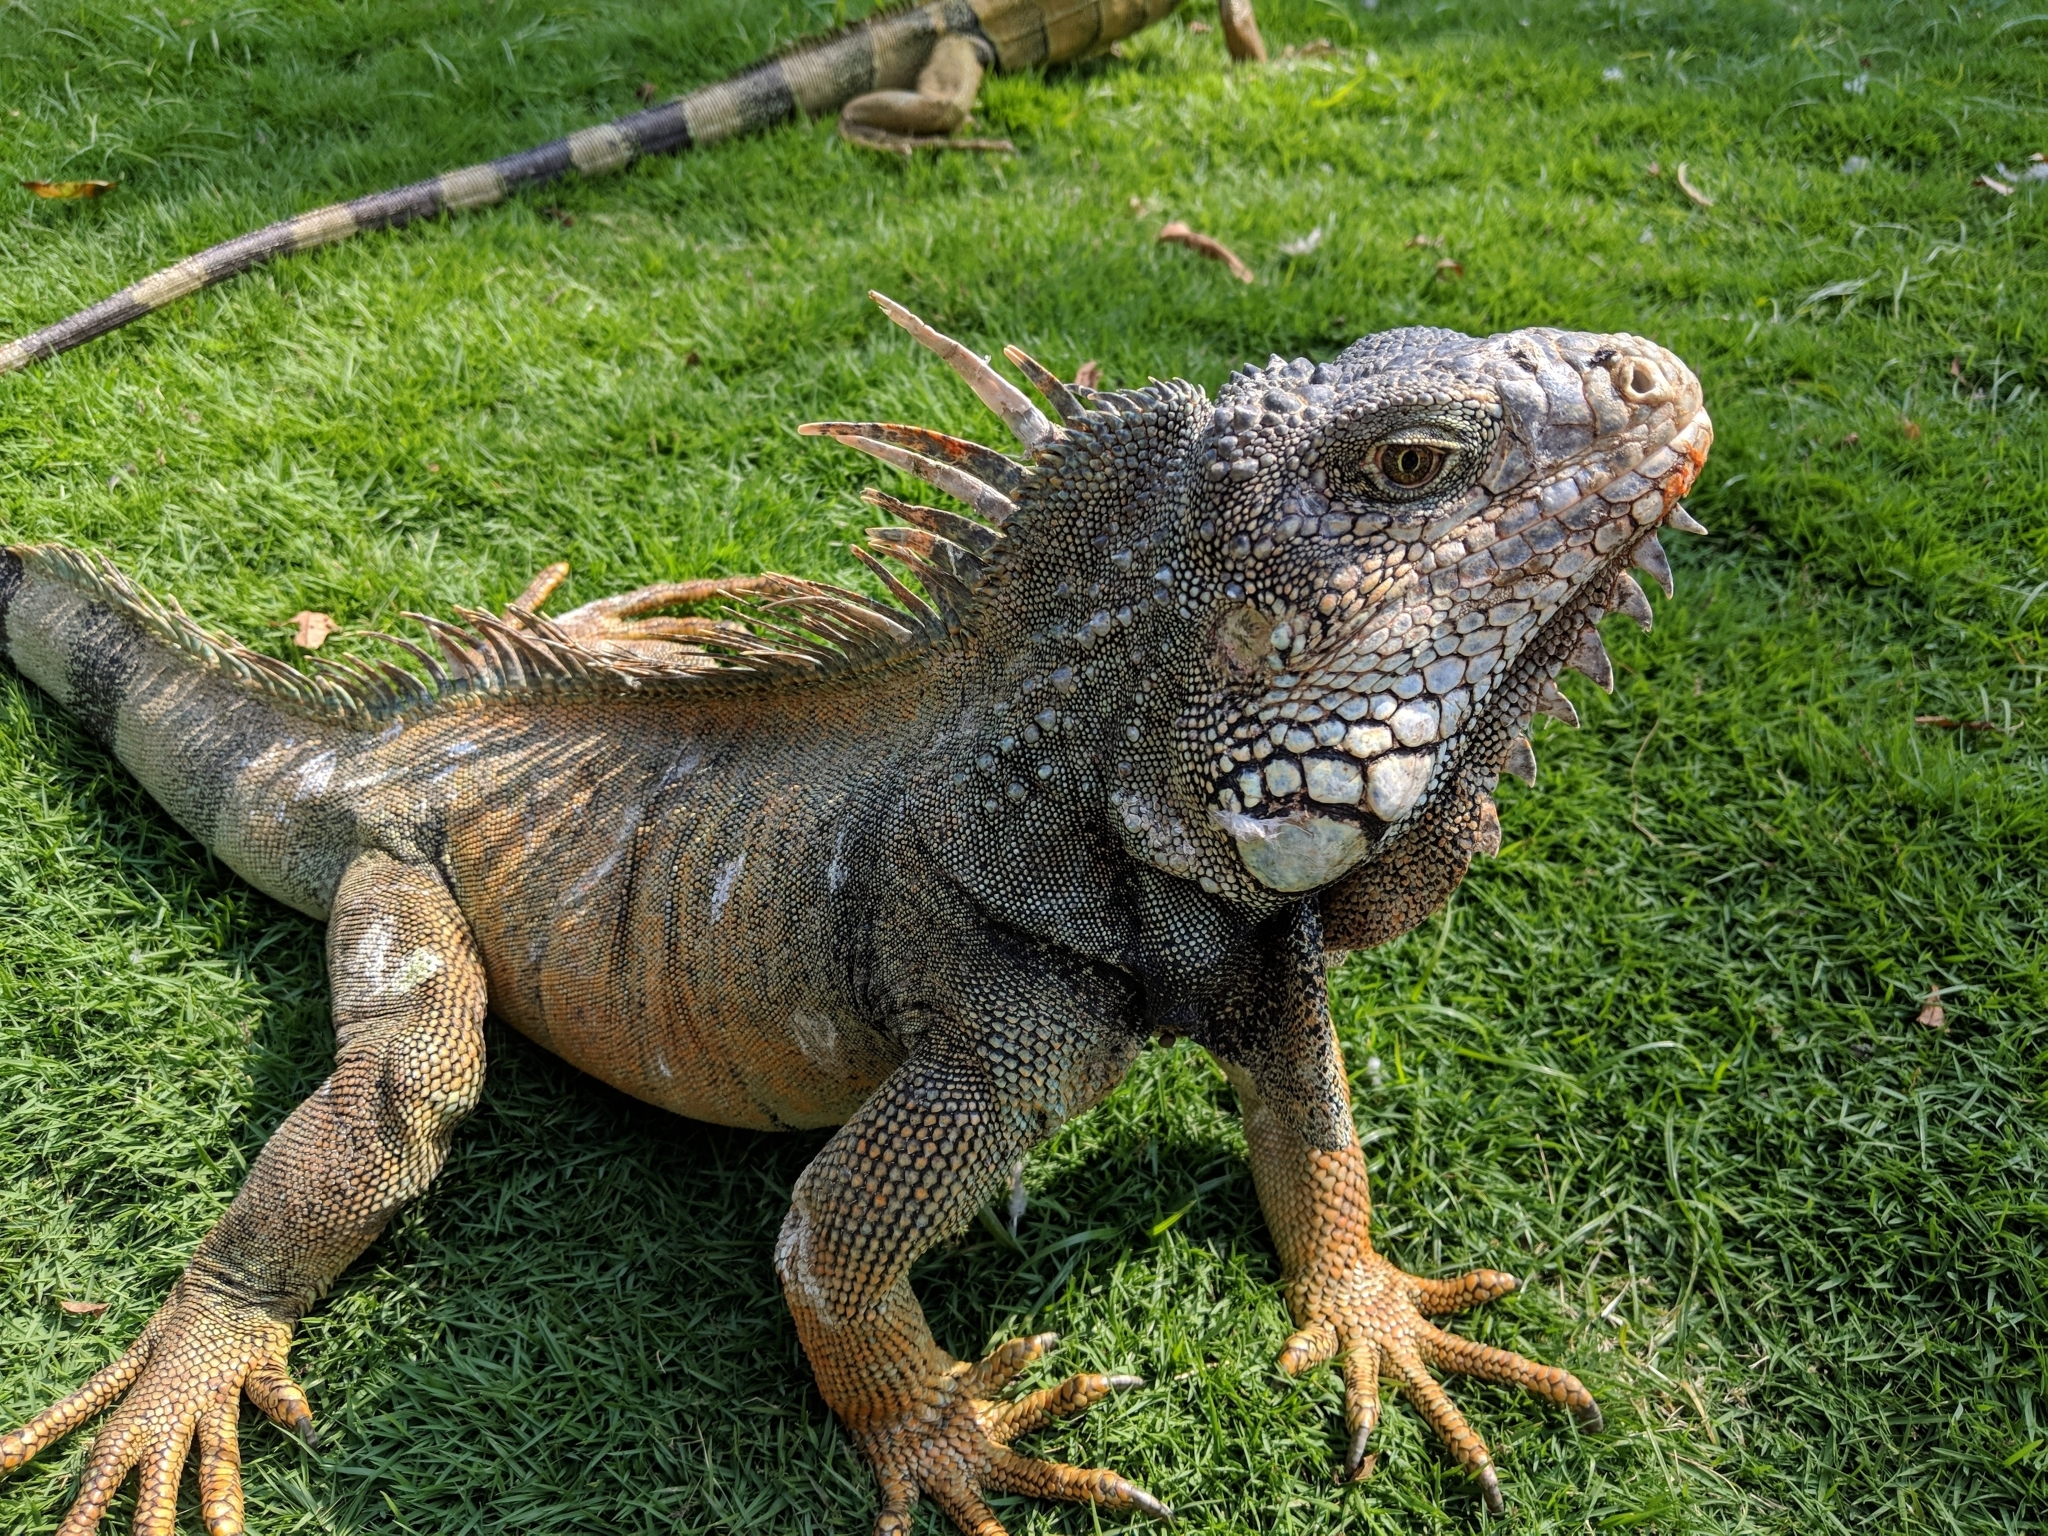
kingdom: Animalia
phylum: Chordata
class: Squamata
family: Iguanidae
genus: Iguana
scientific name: Iguana iguana
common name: Green iguana
